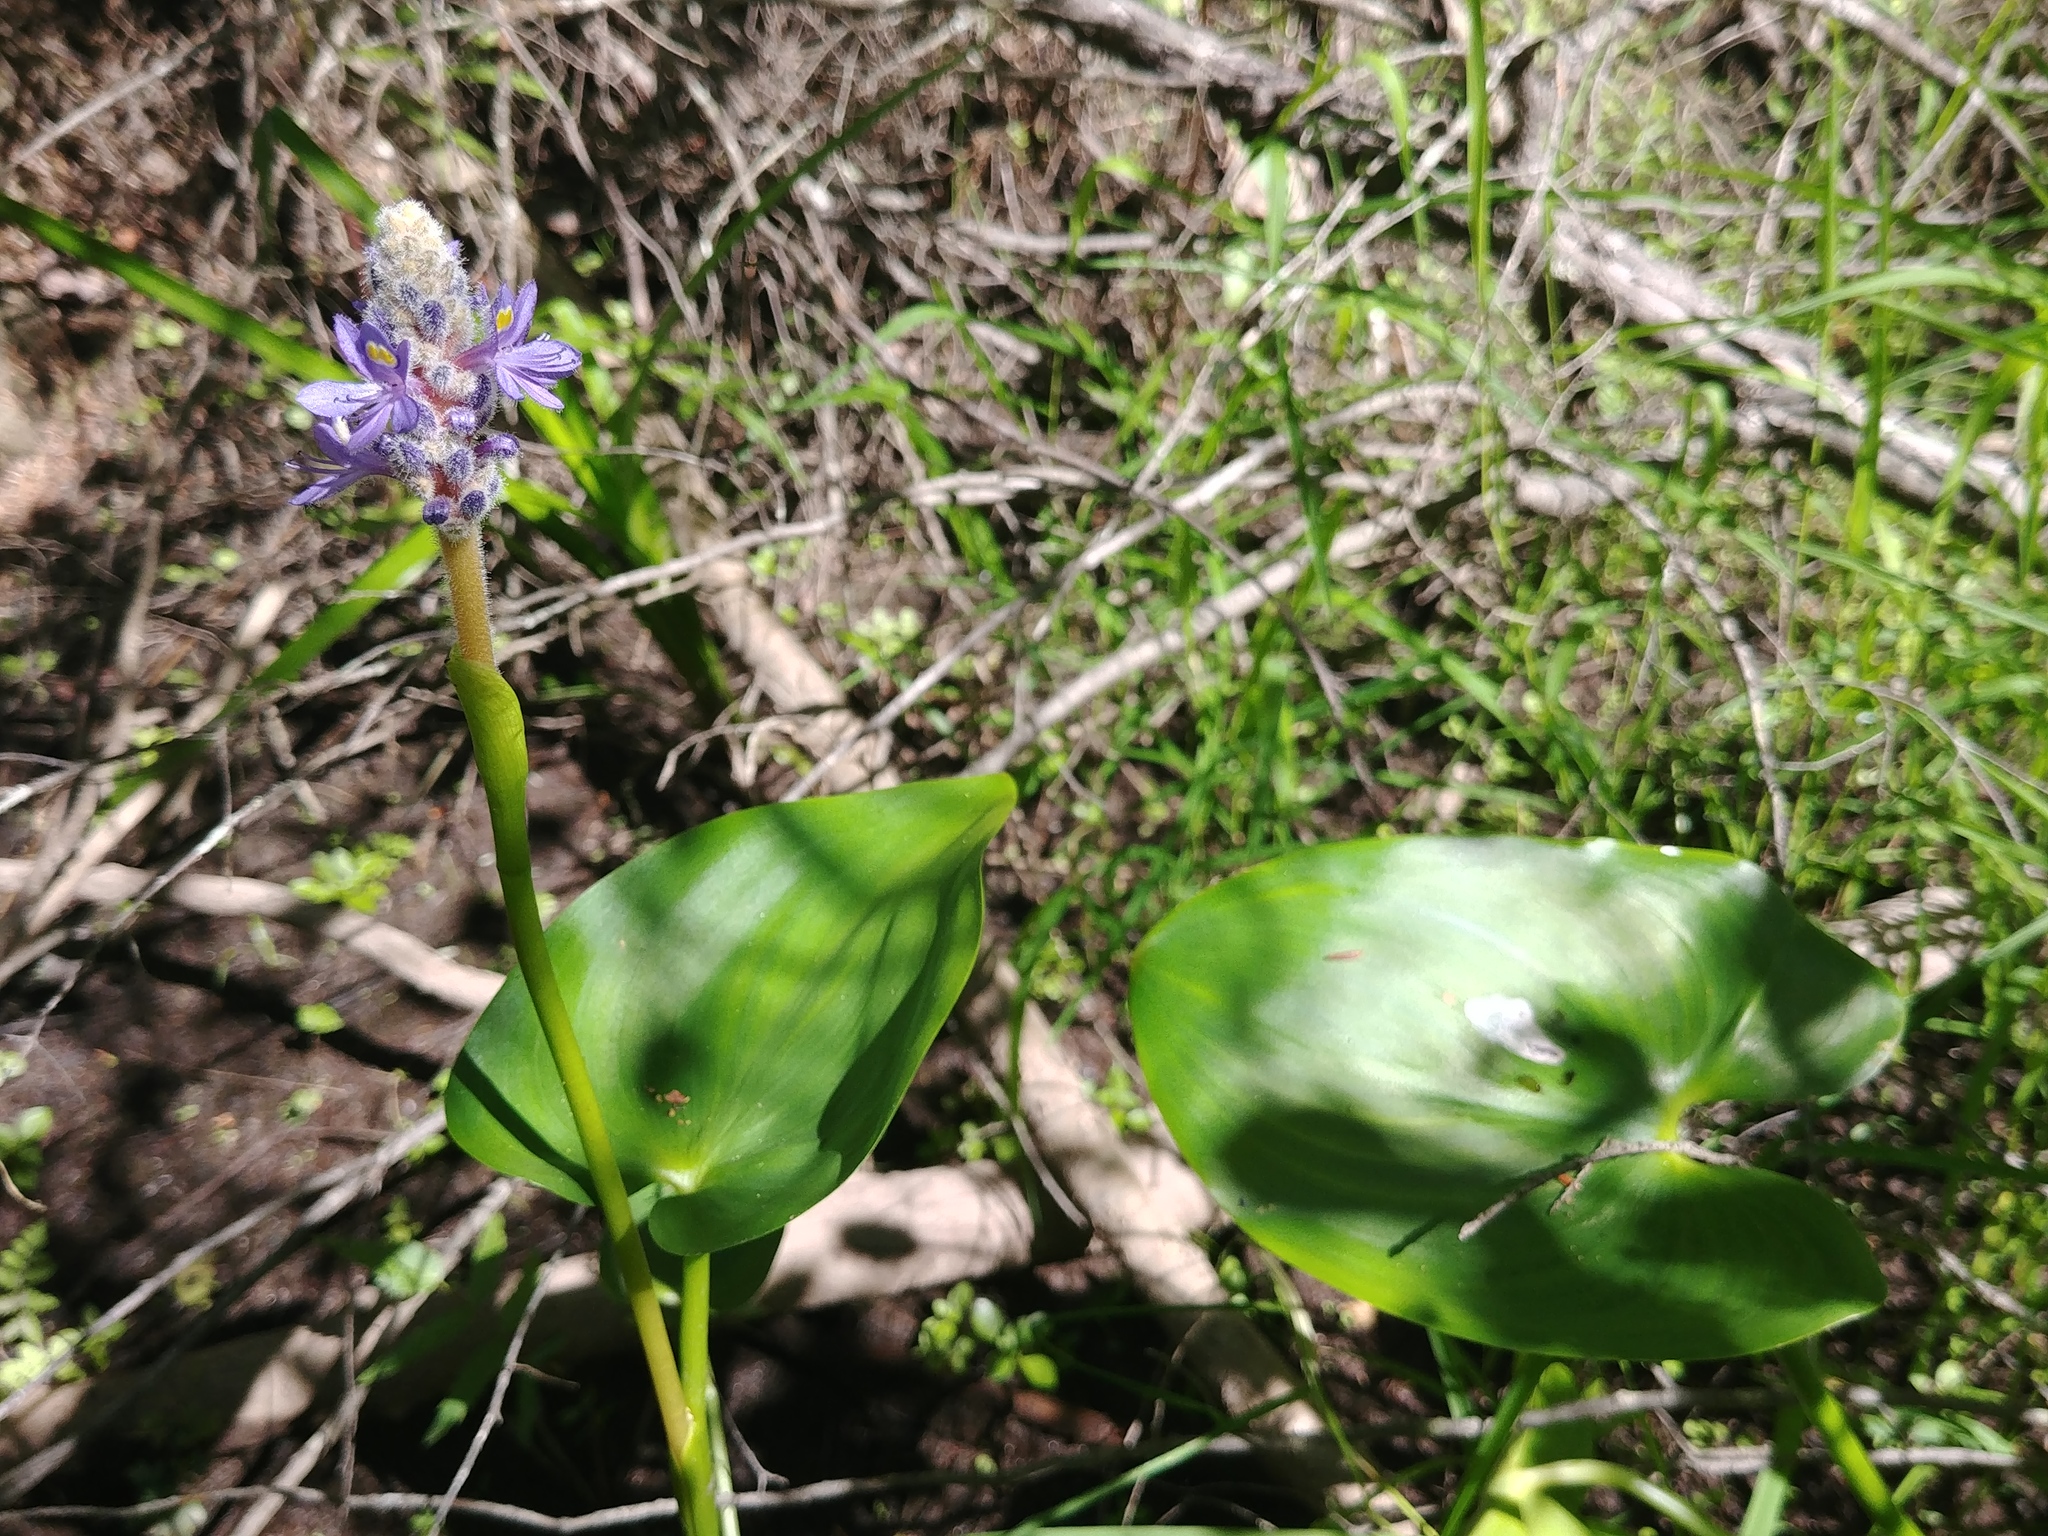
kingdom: Plantae
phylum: Tracheophyta
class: Liliopsida
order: Commelinales
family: Pontederiaceae
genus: Pontederia
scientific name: Pontederia cordata
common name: Pickerelweed
